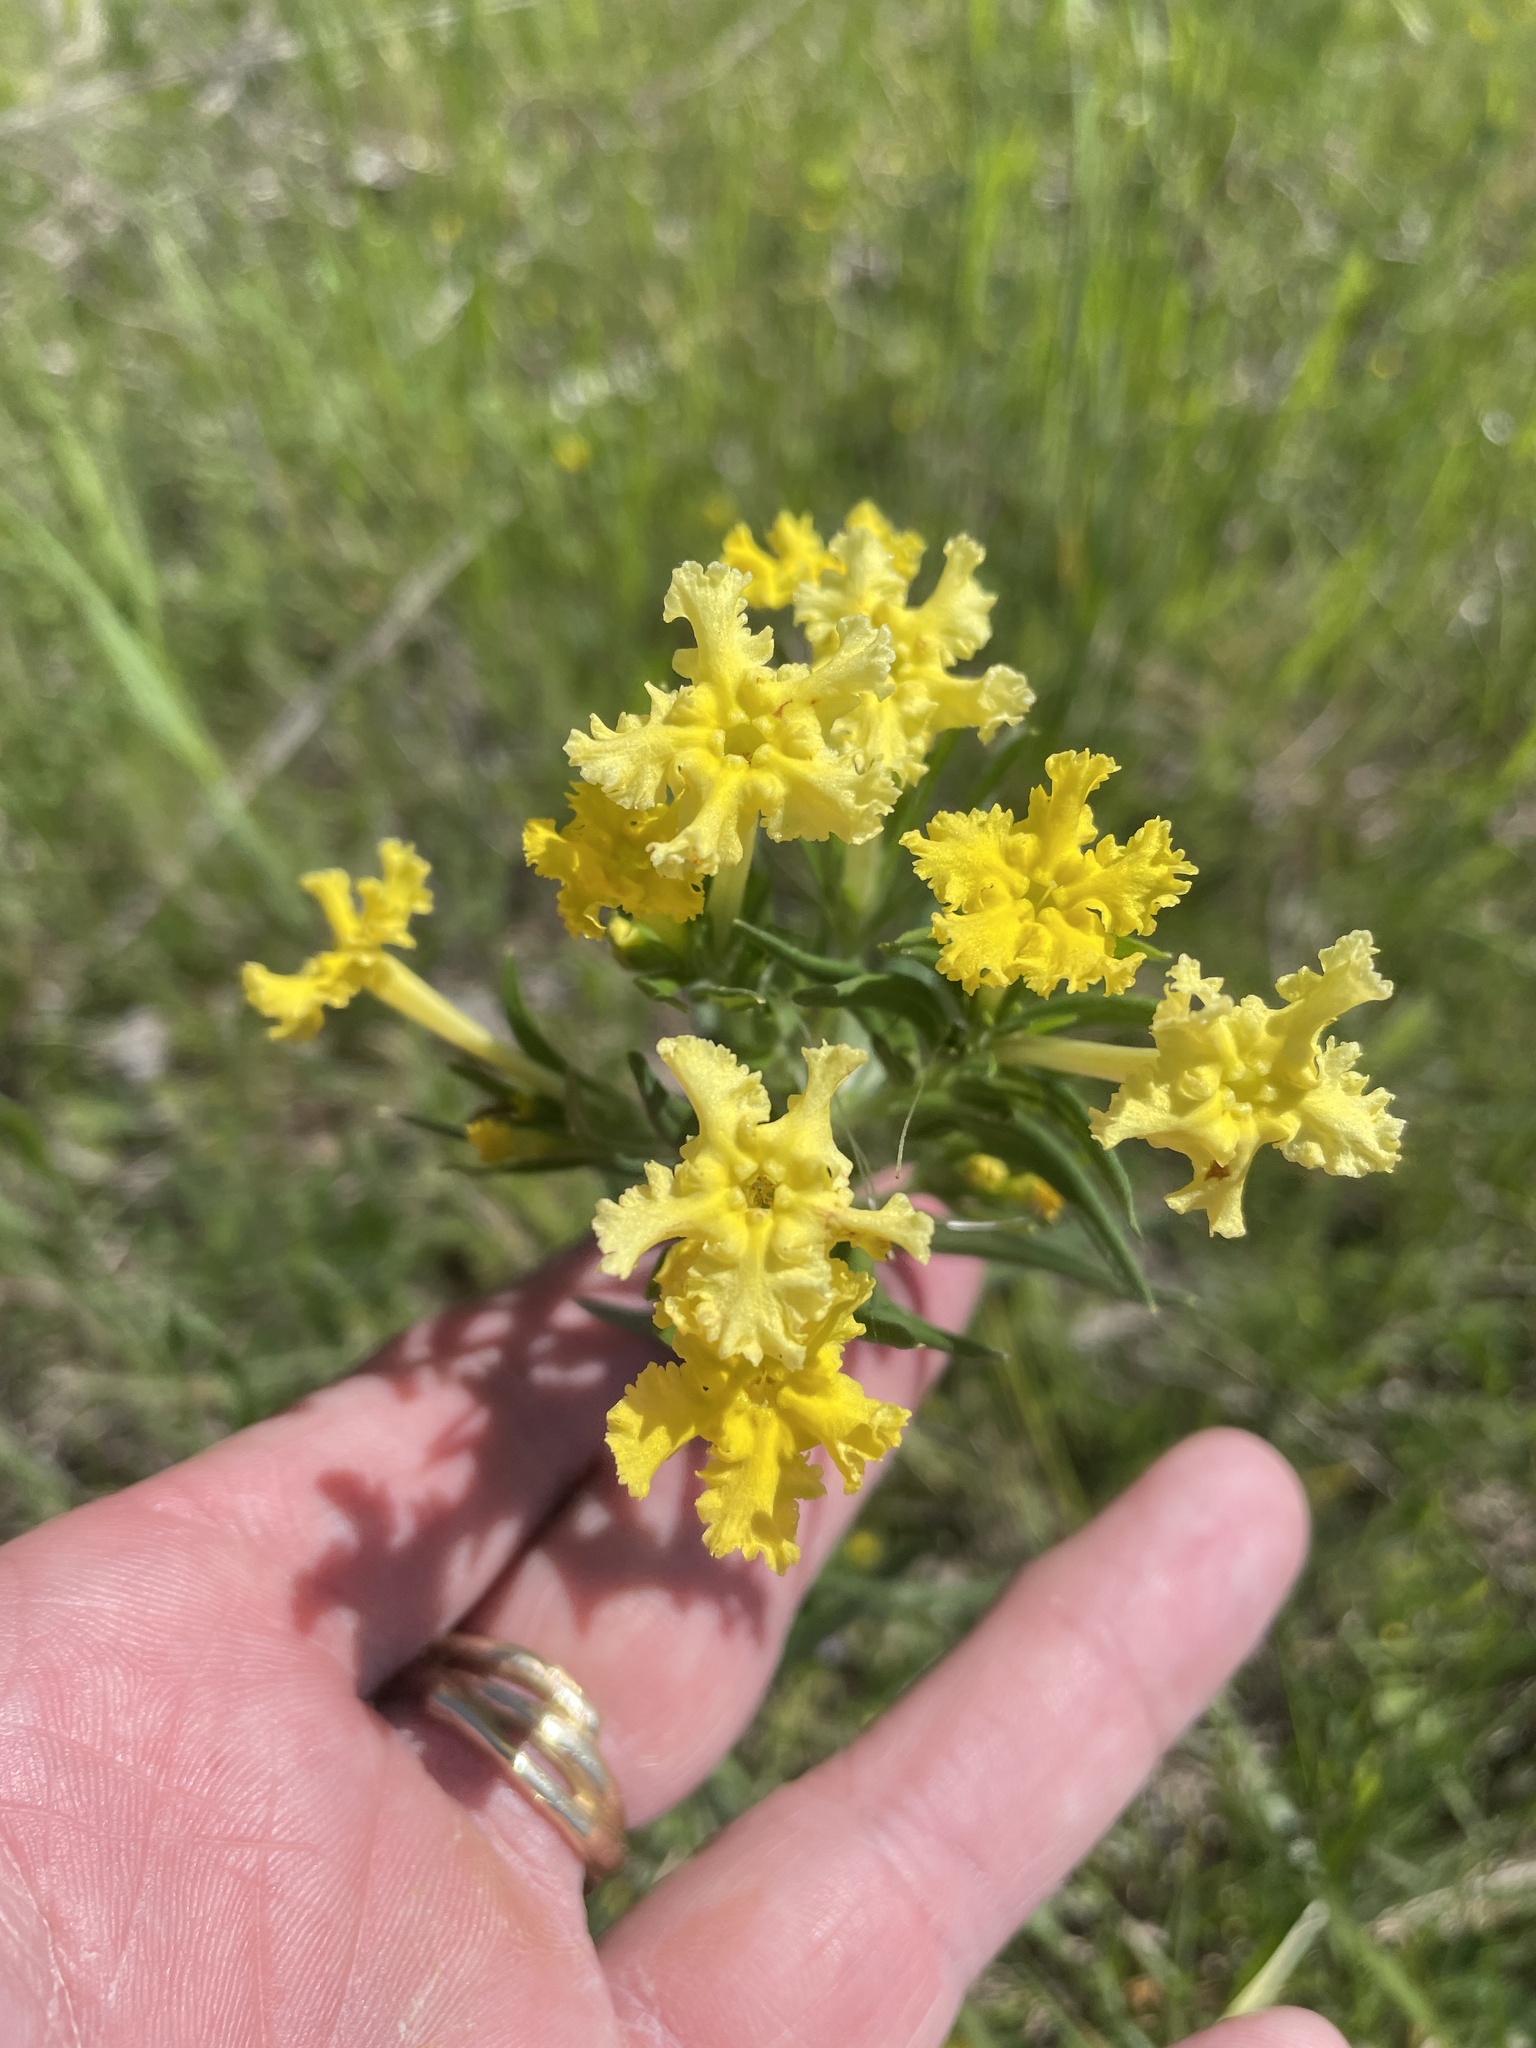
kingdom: Plantae
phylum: Tracheophyta
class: Magnoliopsida
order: Boraginales
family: Boraginaceae
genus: Lithospermum
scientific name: Lithospermum incisum
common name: Fringed gromwell
